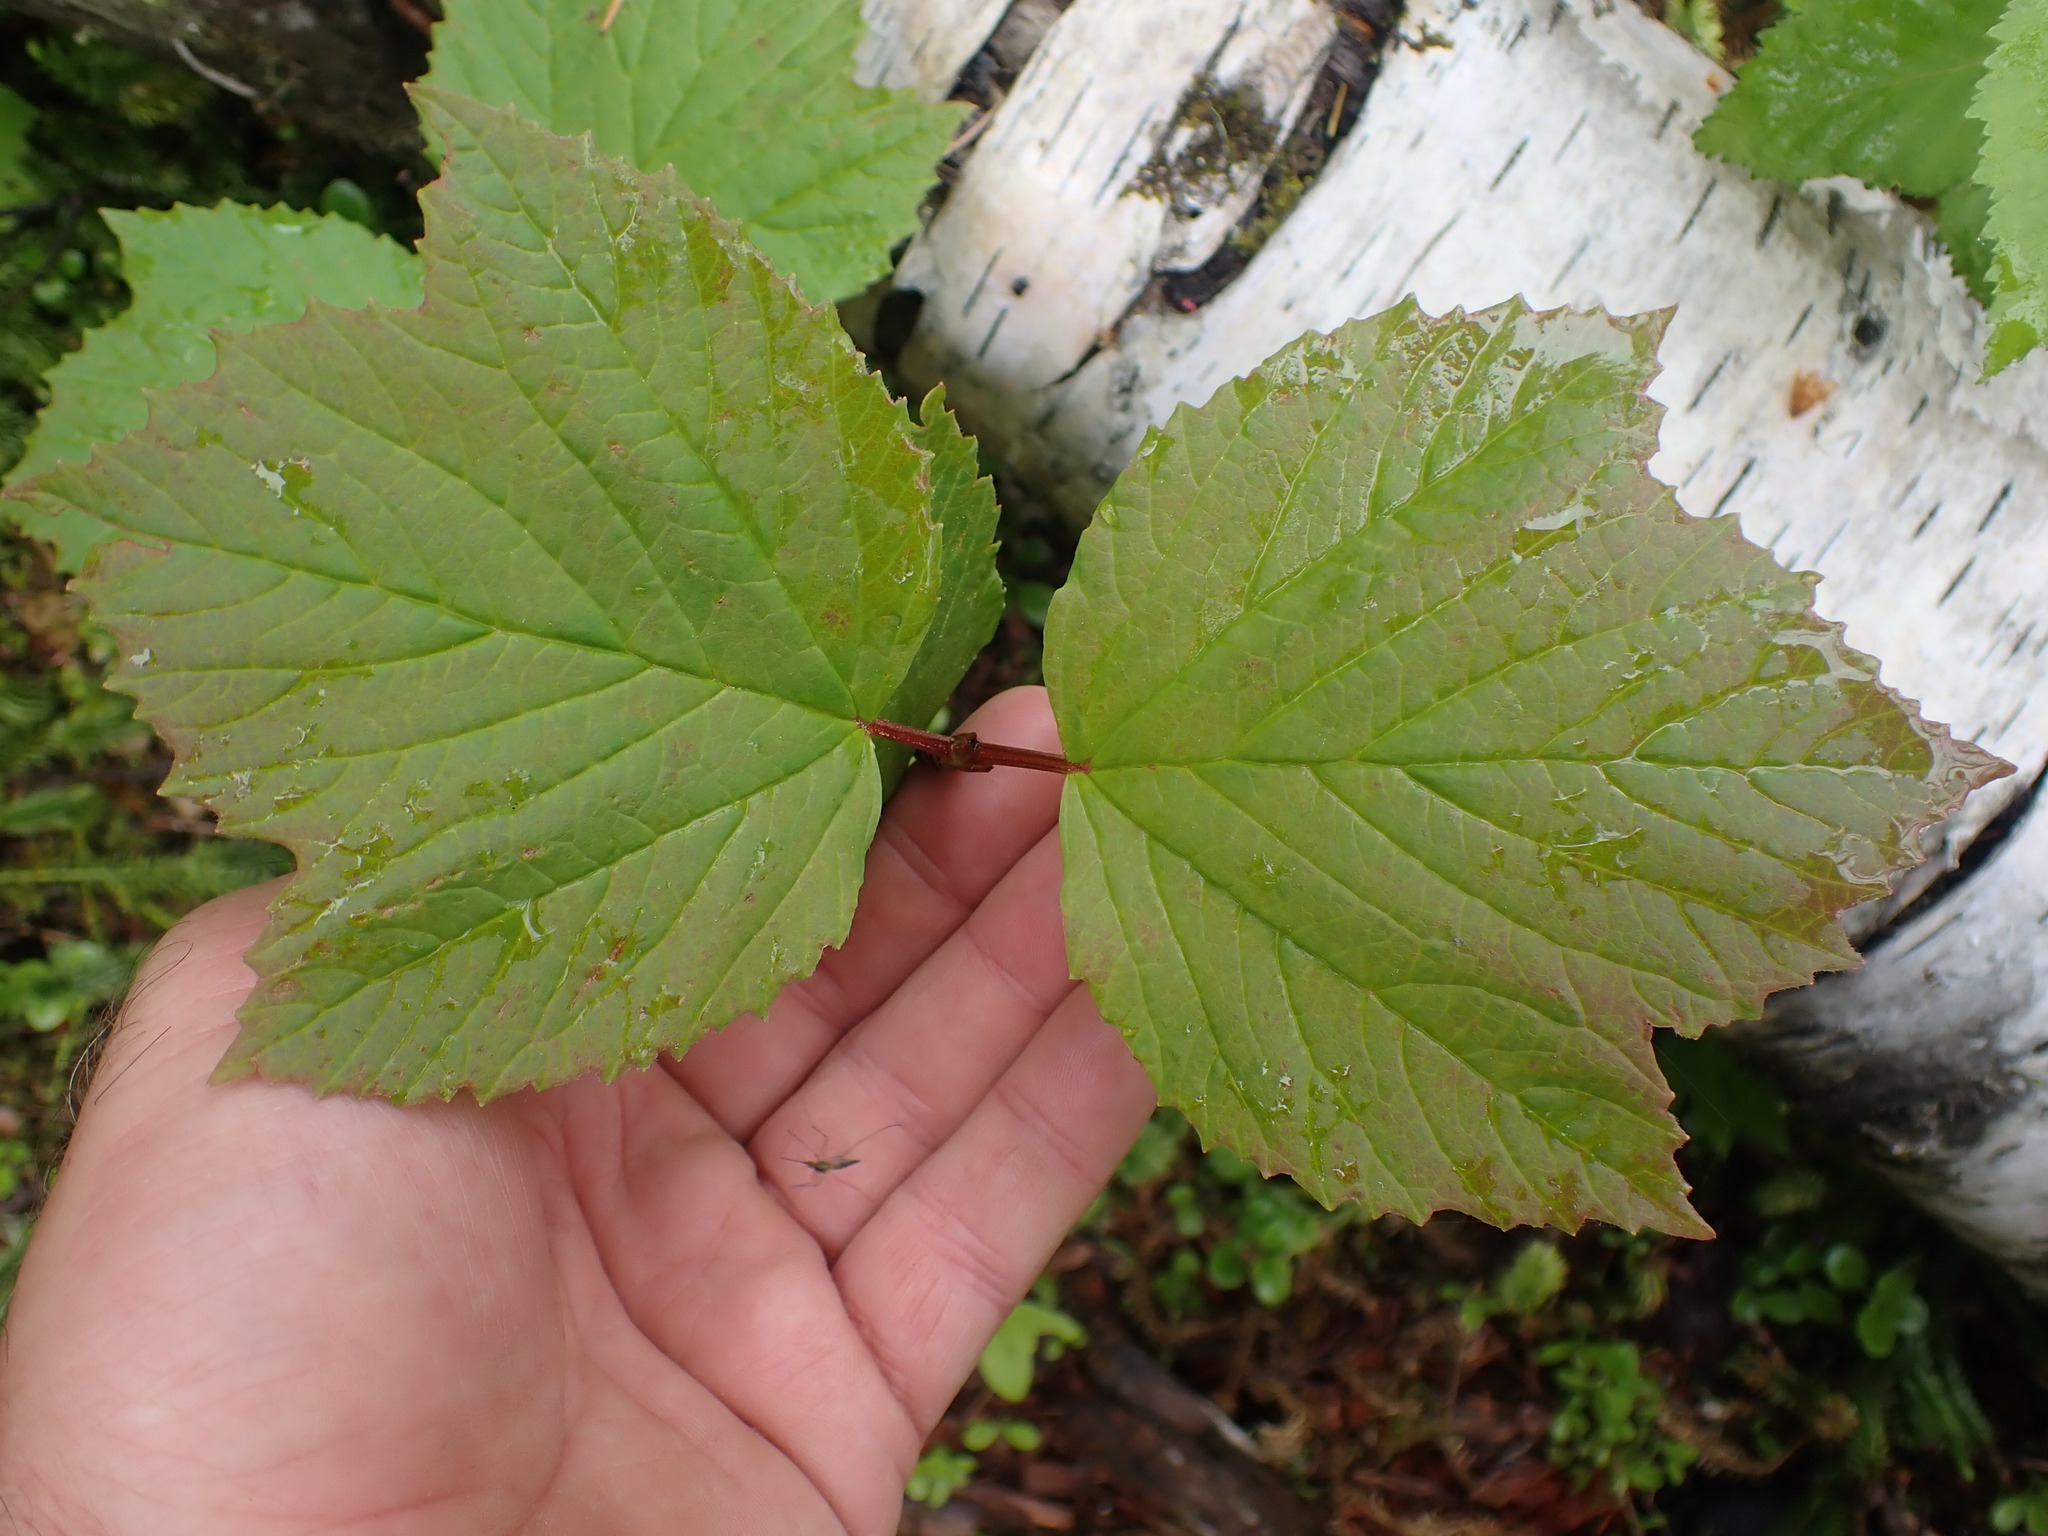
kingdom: Plantae
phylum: Tracheophyta
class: Magnoliopsida
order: Dipsacales
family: Viburnaceae
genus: Viburnum
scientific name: Viburnum edule
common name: Mooseberry
